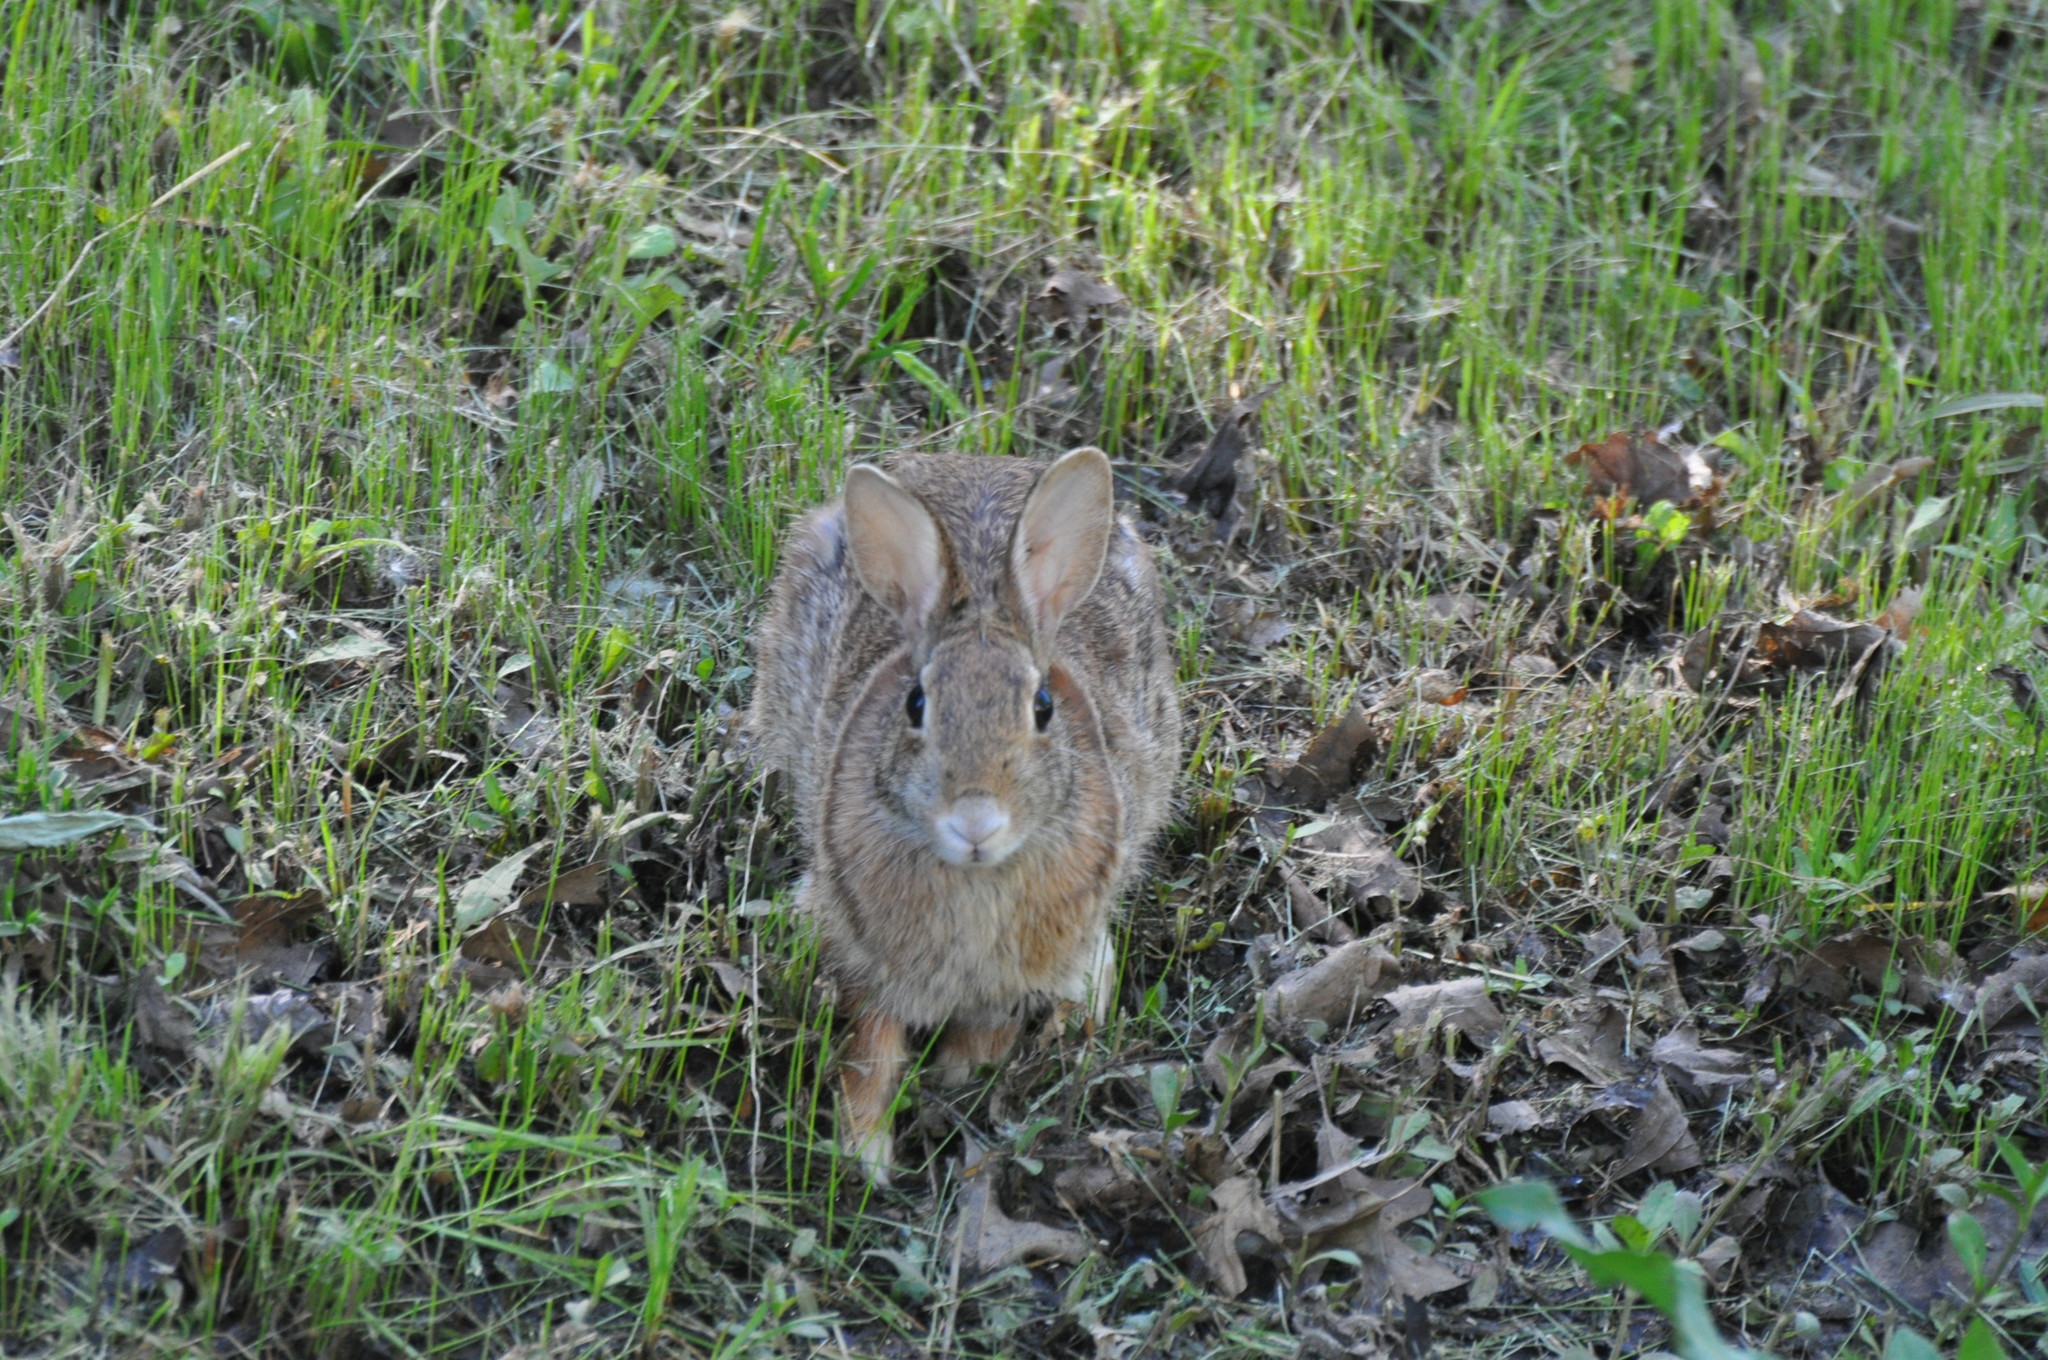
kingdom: Animalia
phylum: Chordata
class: Mammalia
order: Lagomorpha
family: Leporidae
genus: Sylvilagus
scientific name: Sylvilagus floridanus
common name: Eastern cottontail
